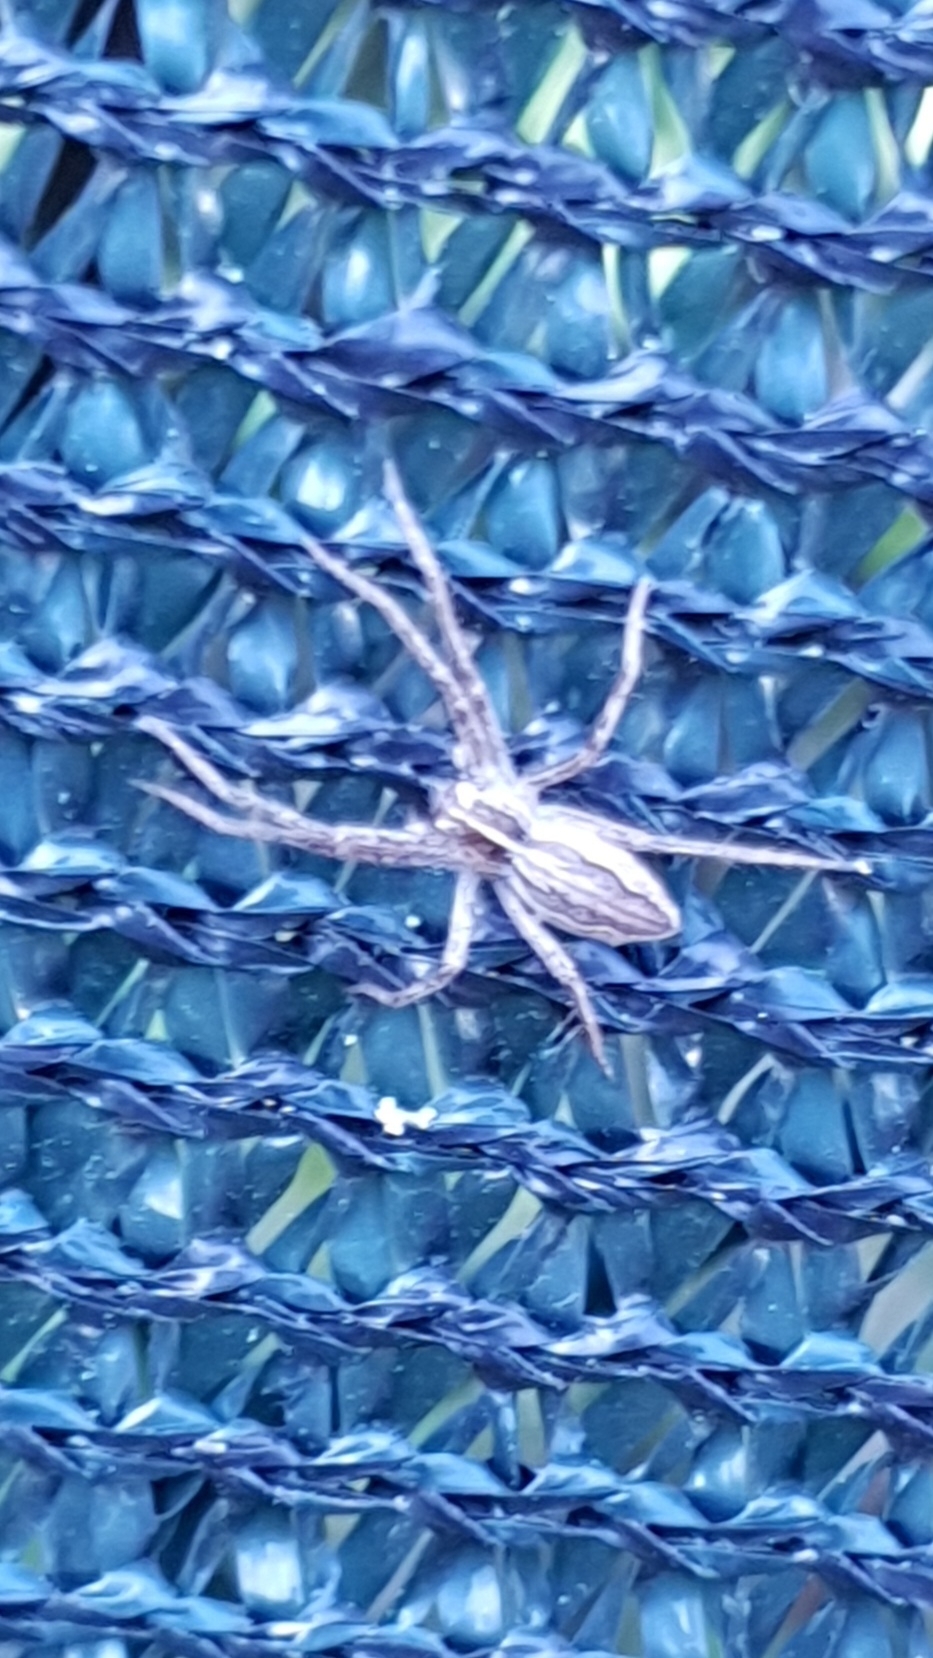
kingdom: Animalia
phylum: Arthropoda
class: Arachnida
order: Araneae
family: Pisauridae
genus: Pisaura
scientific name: Pisaura mirabilis
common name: Tent spider
